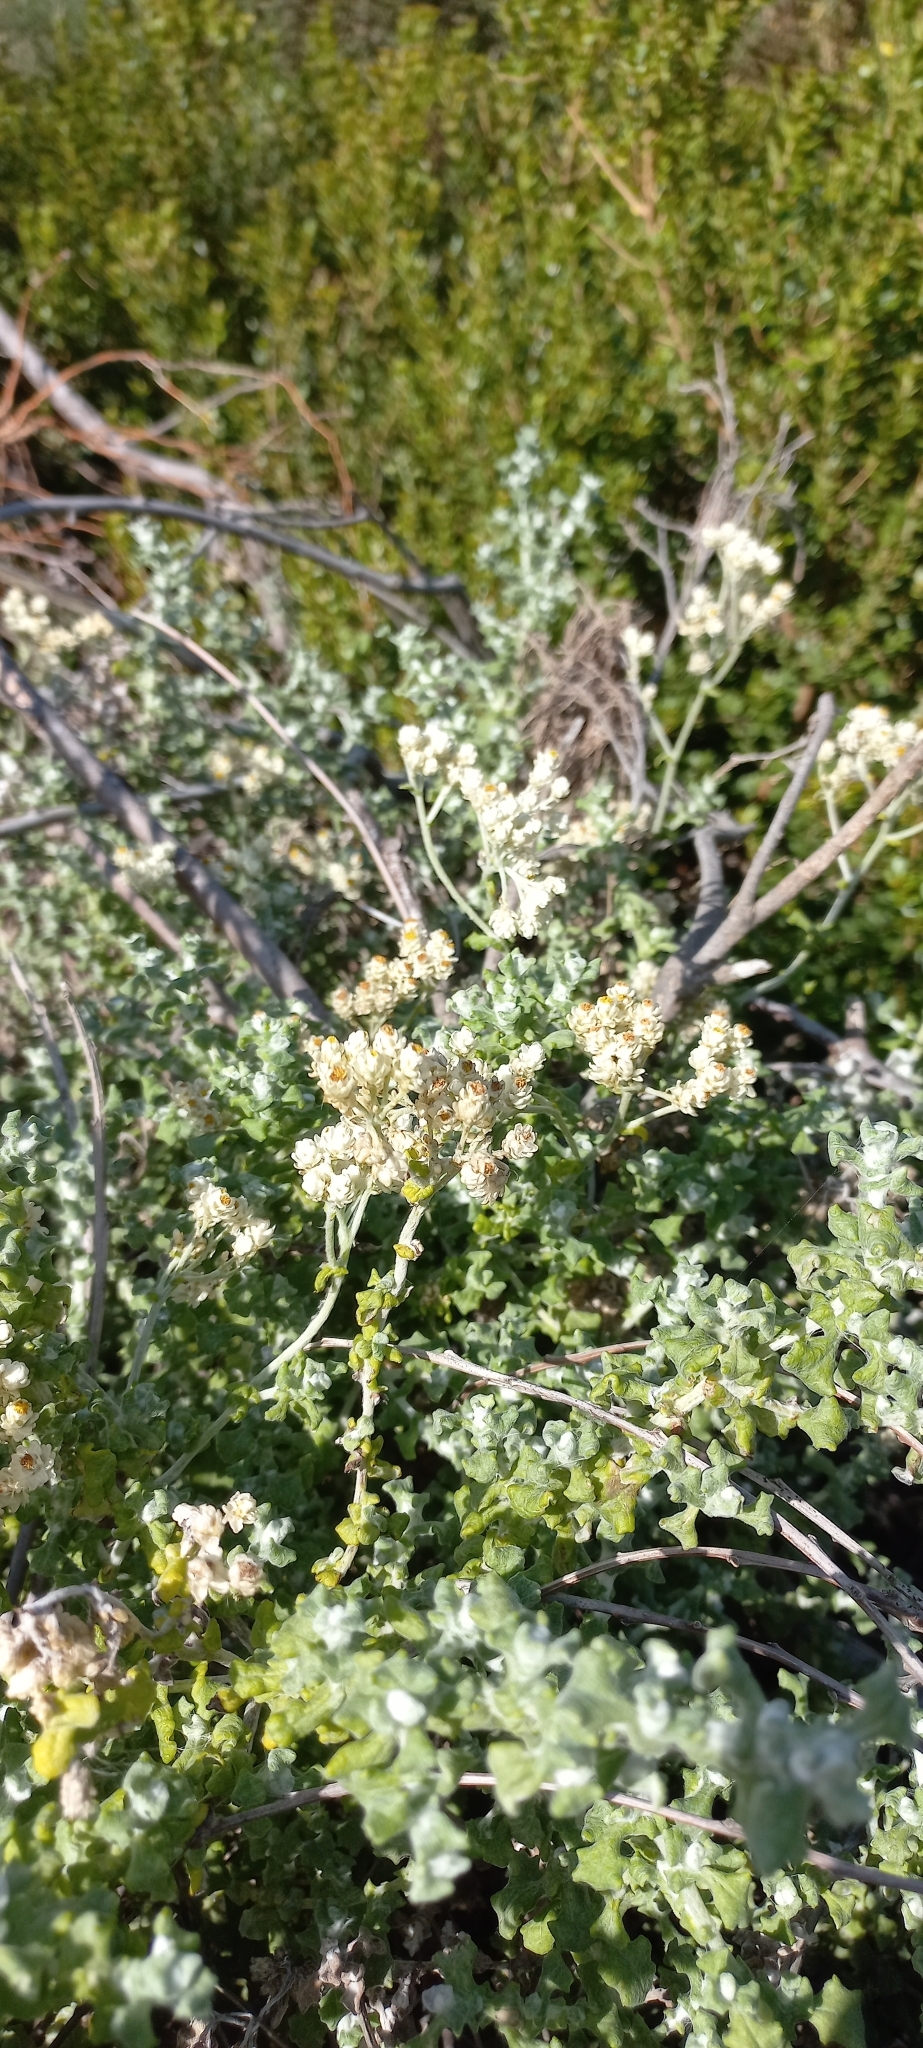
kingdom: Plantae
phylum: Tracheophyta
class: Magnoliopsida
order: Asterales
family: Asteraceae
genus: Helichrysum
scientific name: Helichrysum patulum
